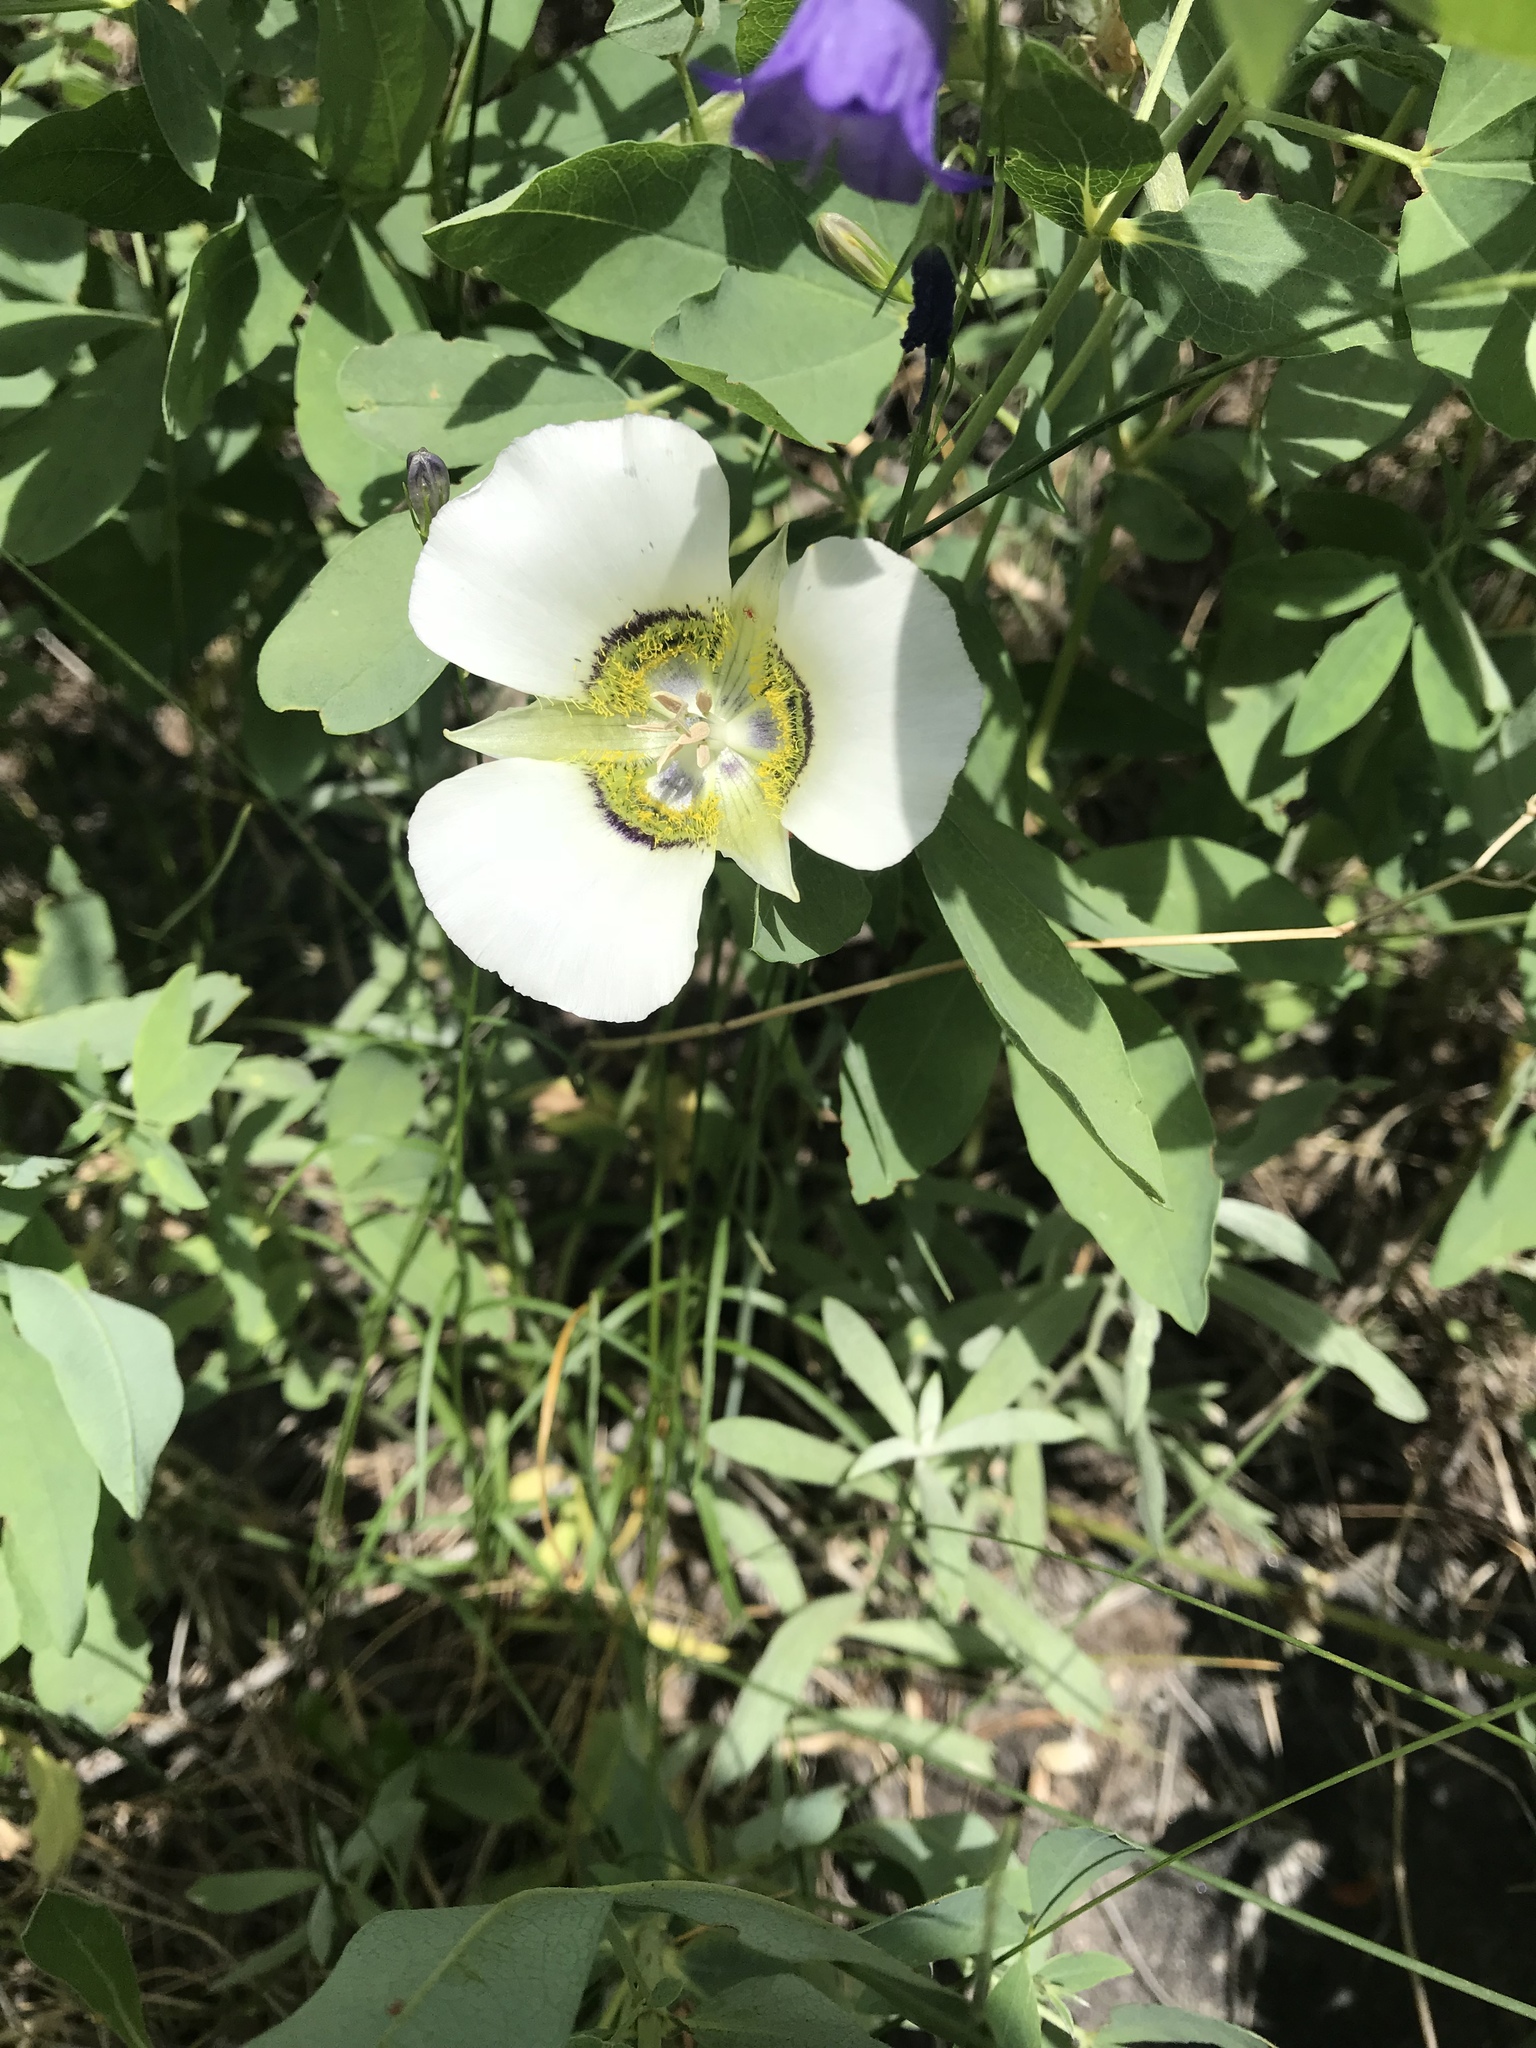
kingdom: Plantae
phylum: Tracheophyta
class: Liliopsida
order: Liliales
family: Liliaceae
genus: Calochortus
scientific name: Calochortus gunnisonii
